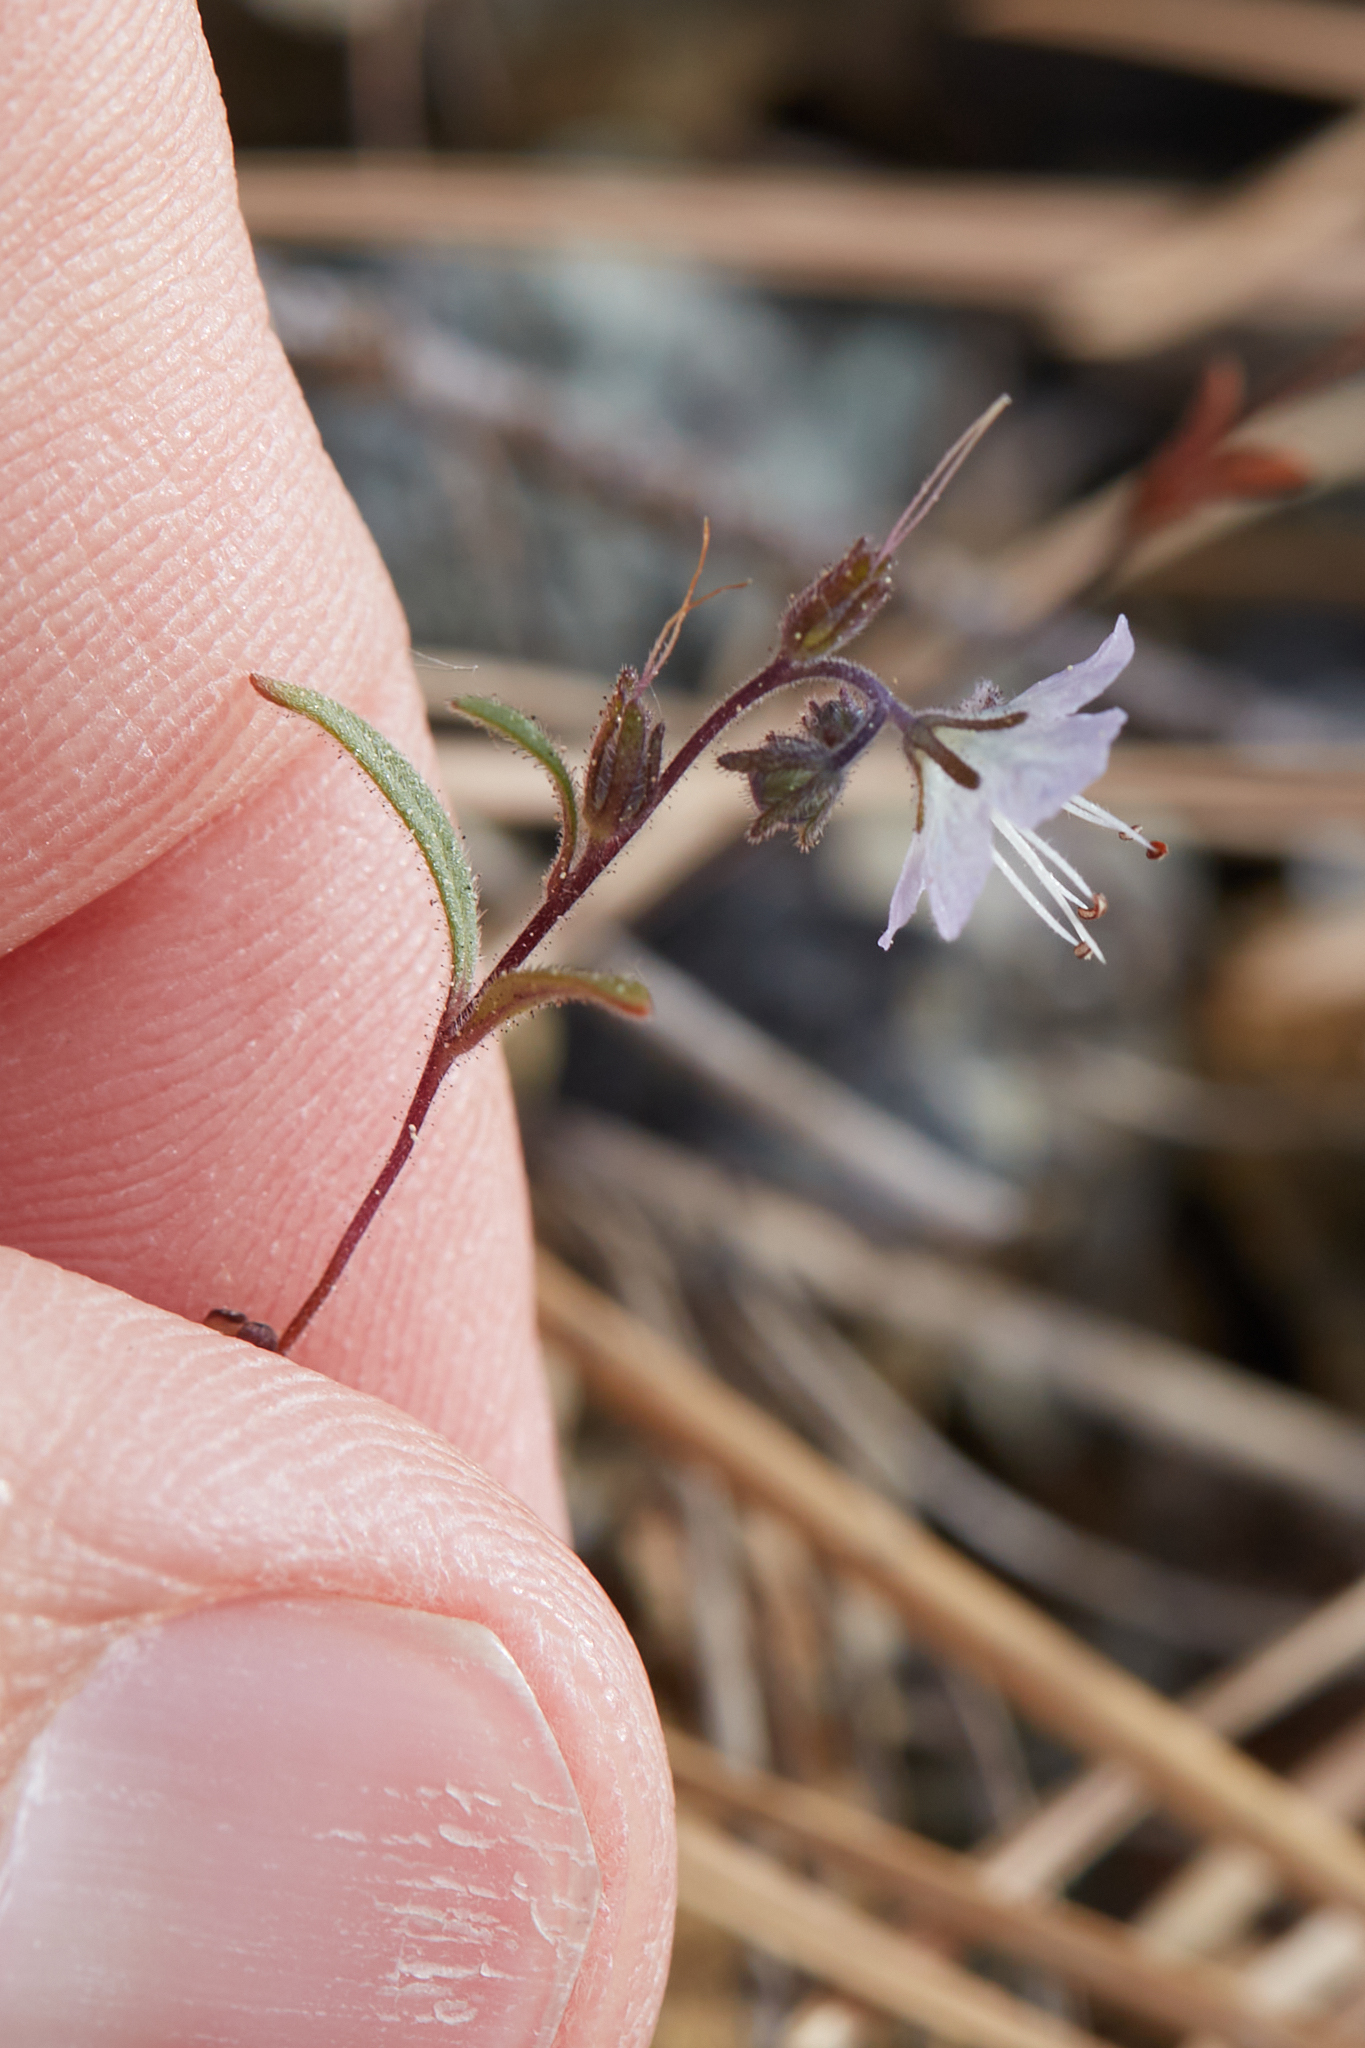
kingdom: Plantae
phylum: Tracheophyta
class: Magnoliopsida
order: Boraginales
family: Hydrophyllaceae
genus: Phacelia
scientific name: Phacelia pringlei
